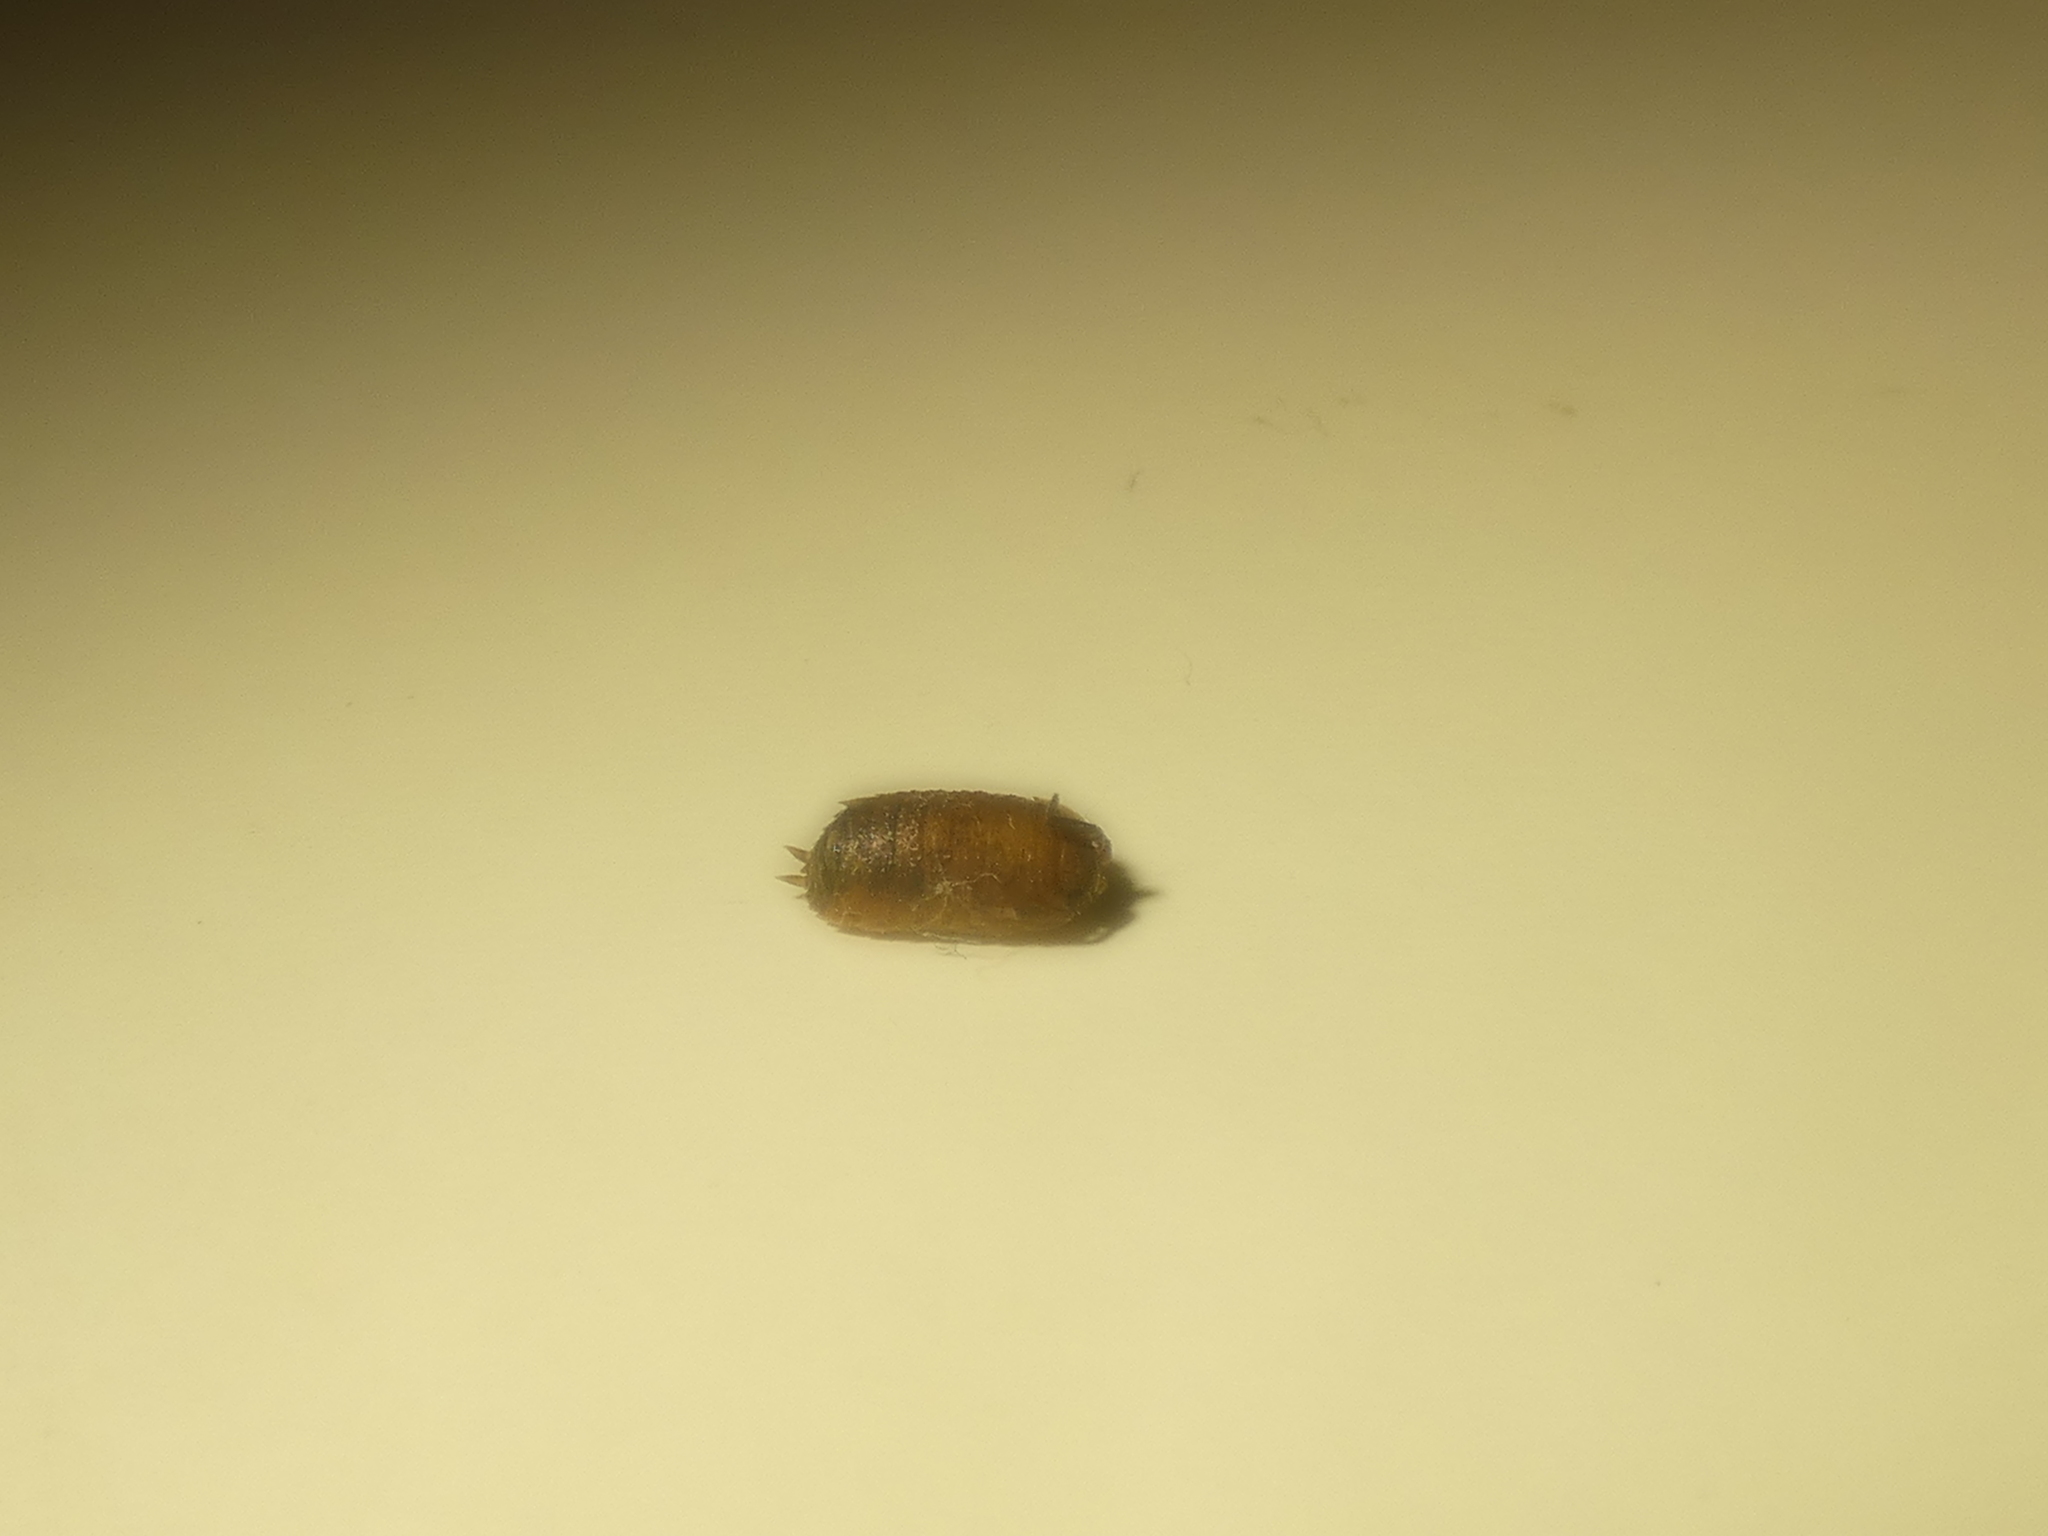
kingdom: Animalia
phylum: Arthropoda
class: Malacostraca
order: Isopoda
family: Porcellionidae
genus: Porcellio
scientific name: Porcellio scaber
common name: Common rough woodlouse
